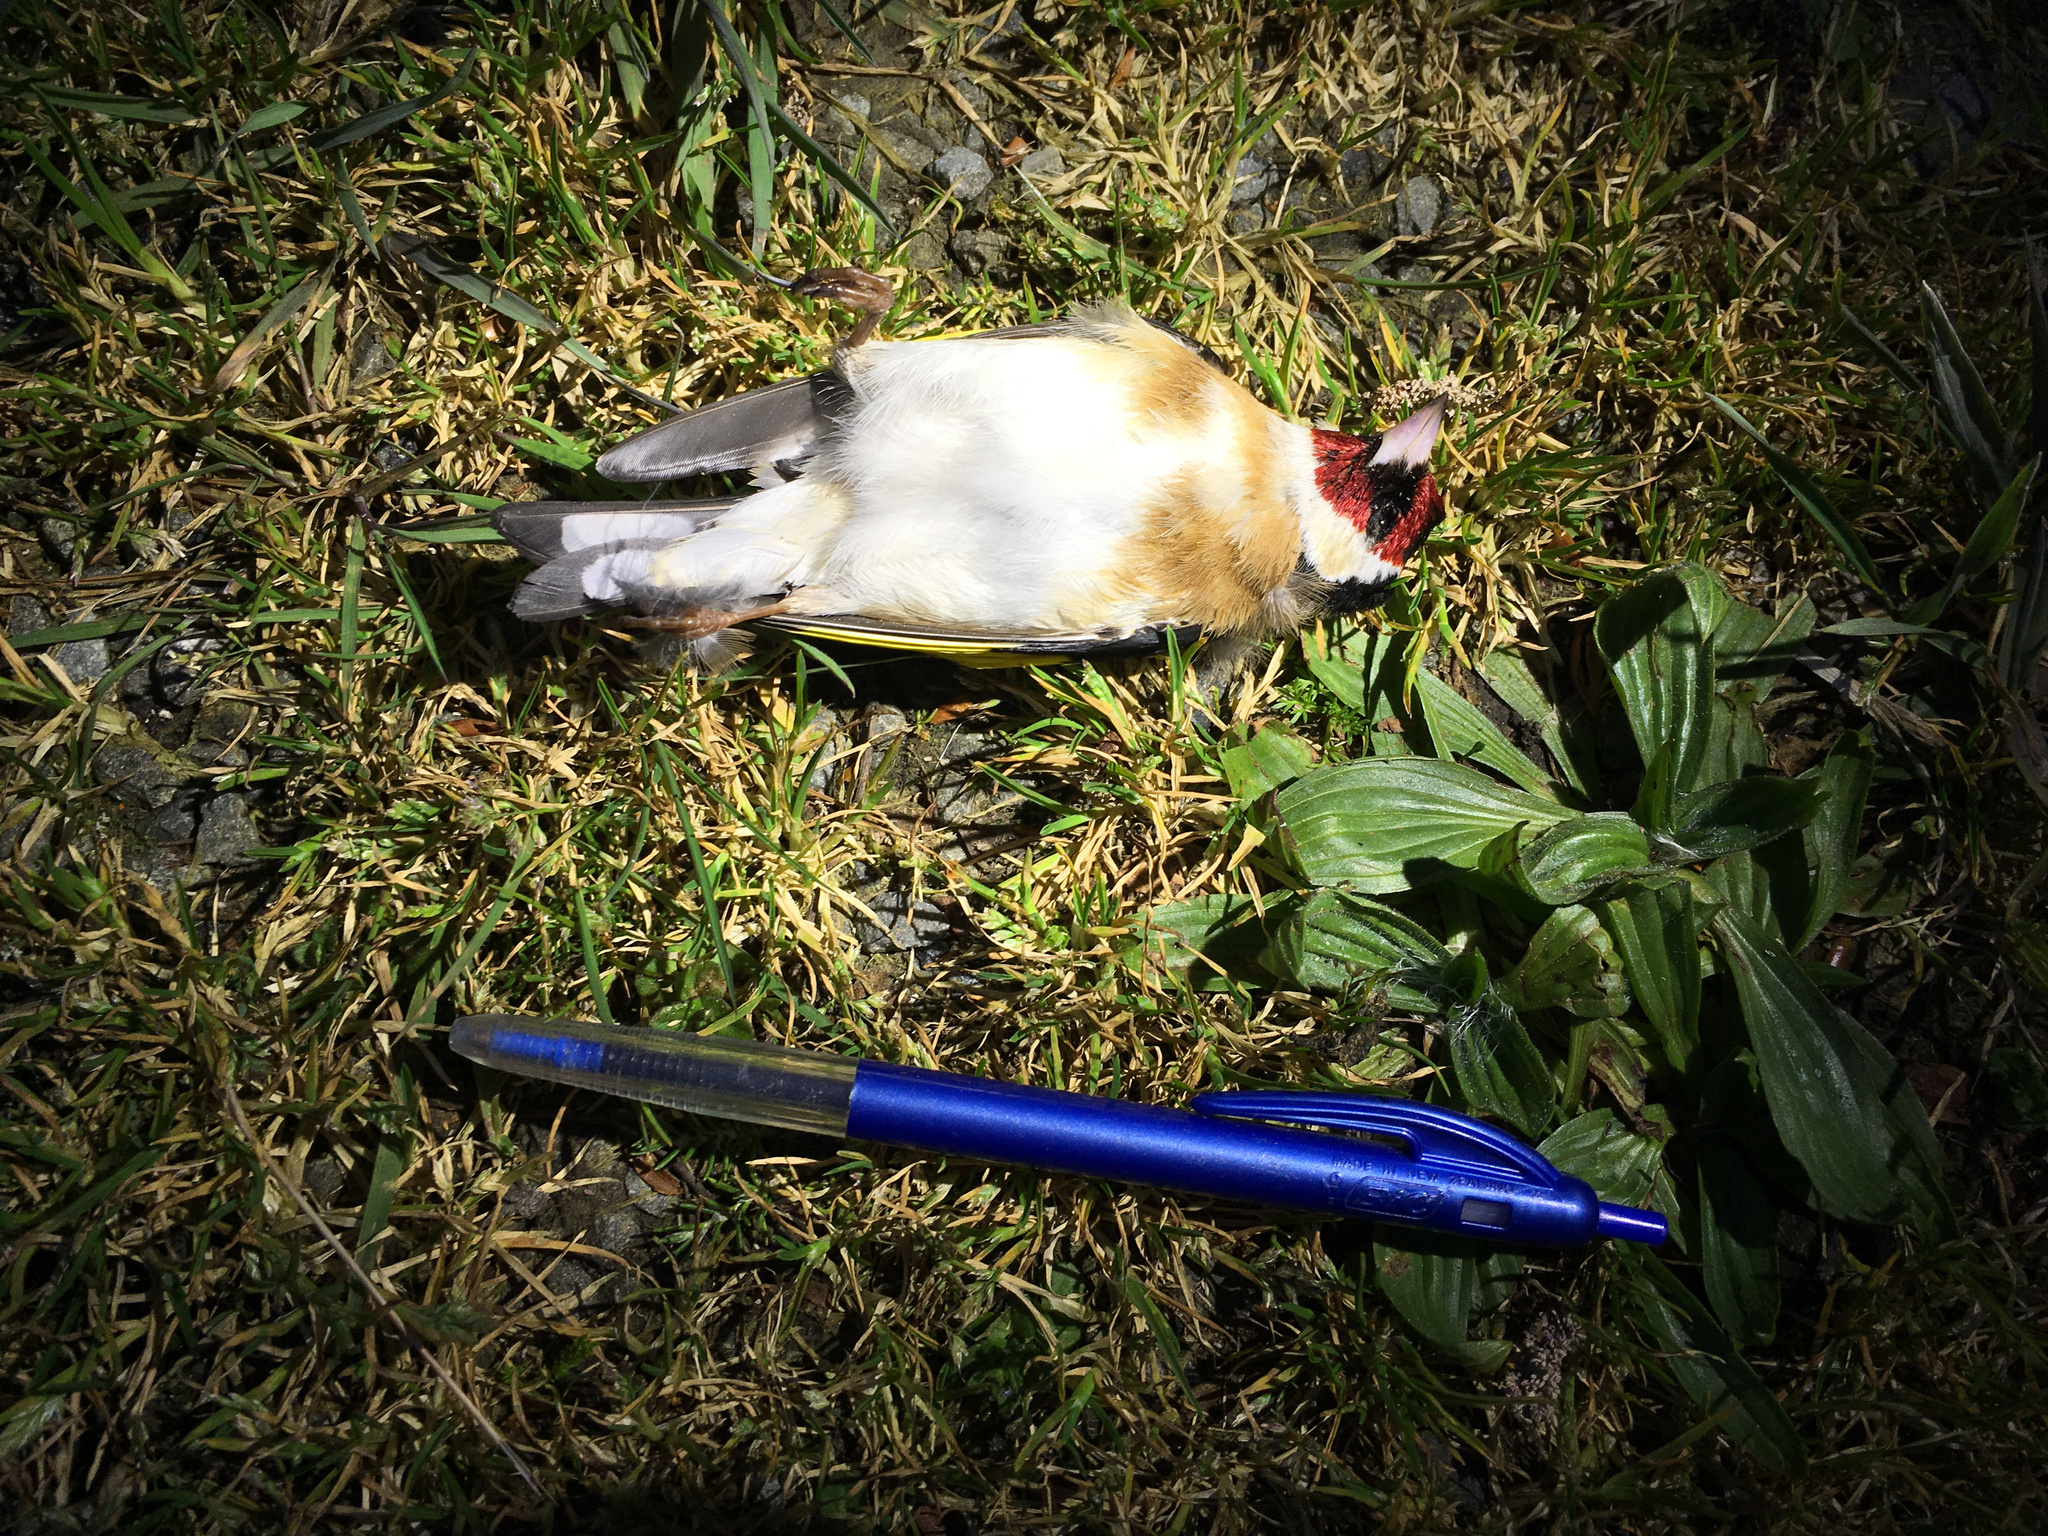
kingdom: Animalia
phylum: Chordata
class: Aves
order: Passeriformes
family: Fringillidae
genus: Carduelis
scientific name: Carduelis carduelis
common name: European goldfinch
